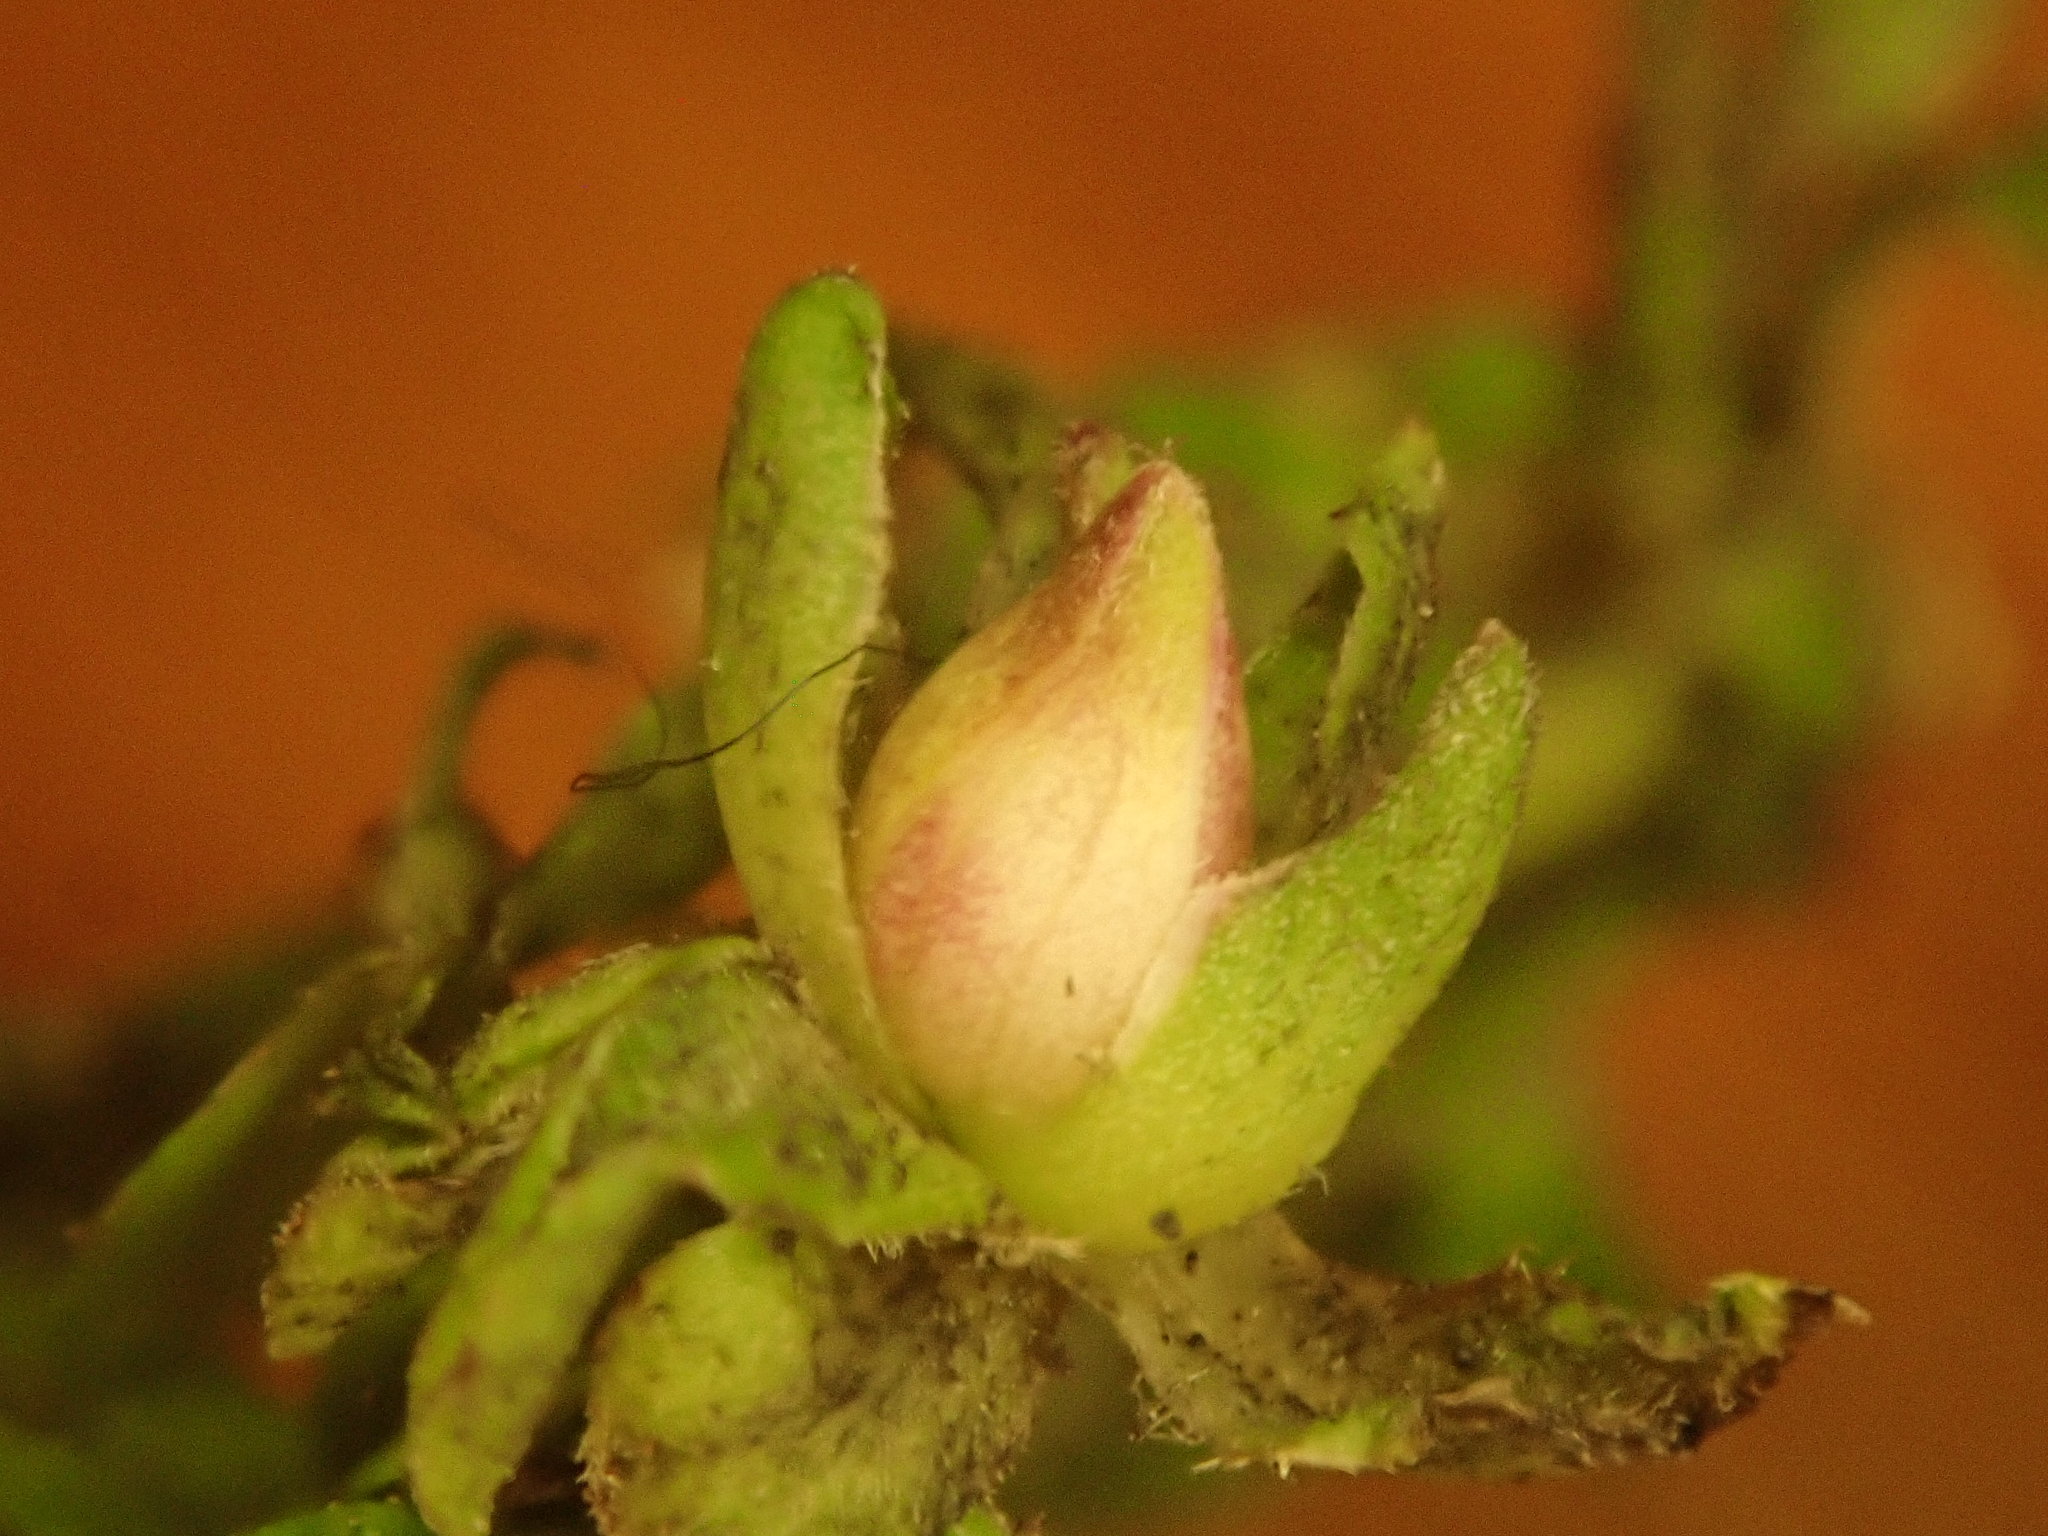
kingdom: Animalia
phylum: Arthropoda
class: Insecta
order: Diptera
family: Cecidomyiidae
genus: Asphondylia
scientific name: Asphondylia imbricata
